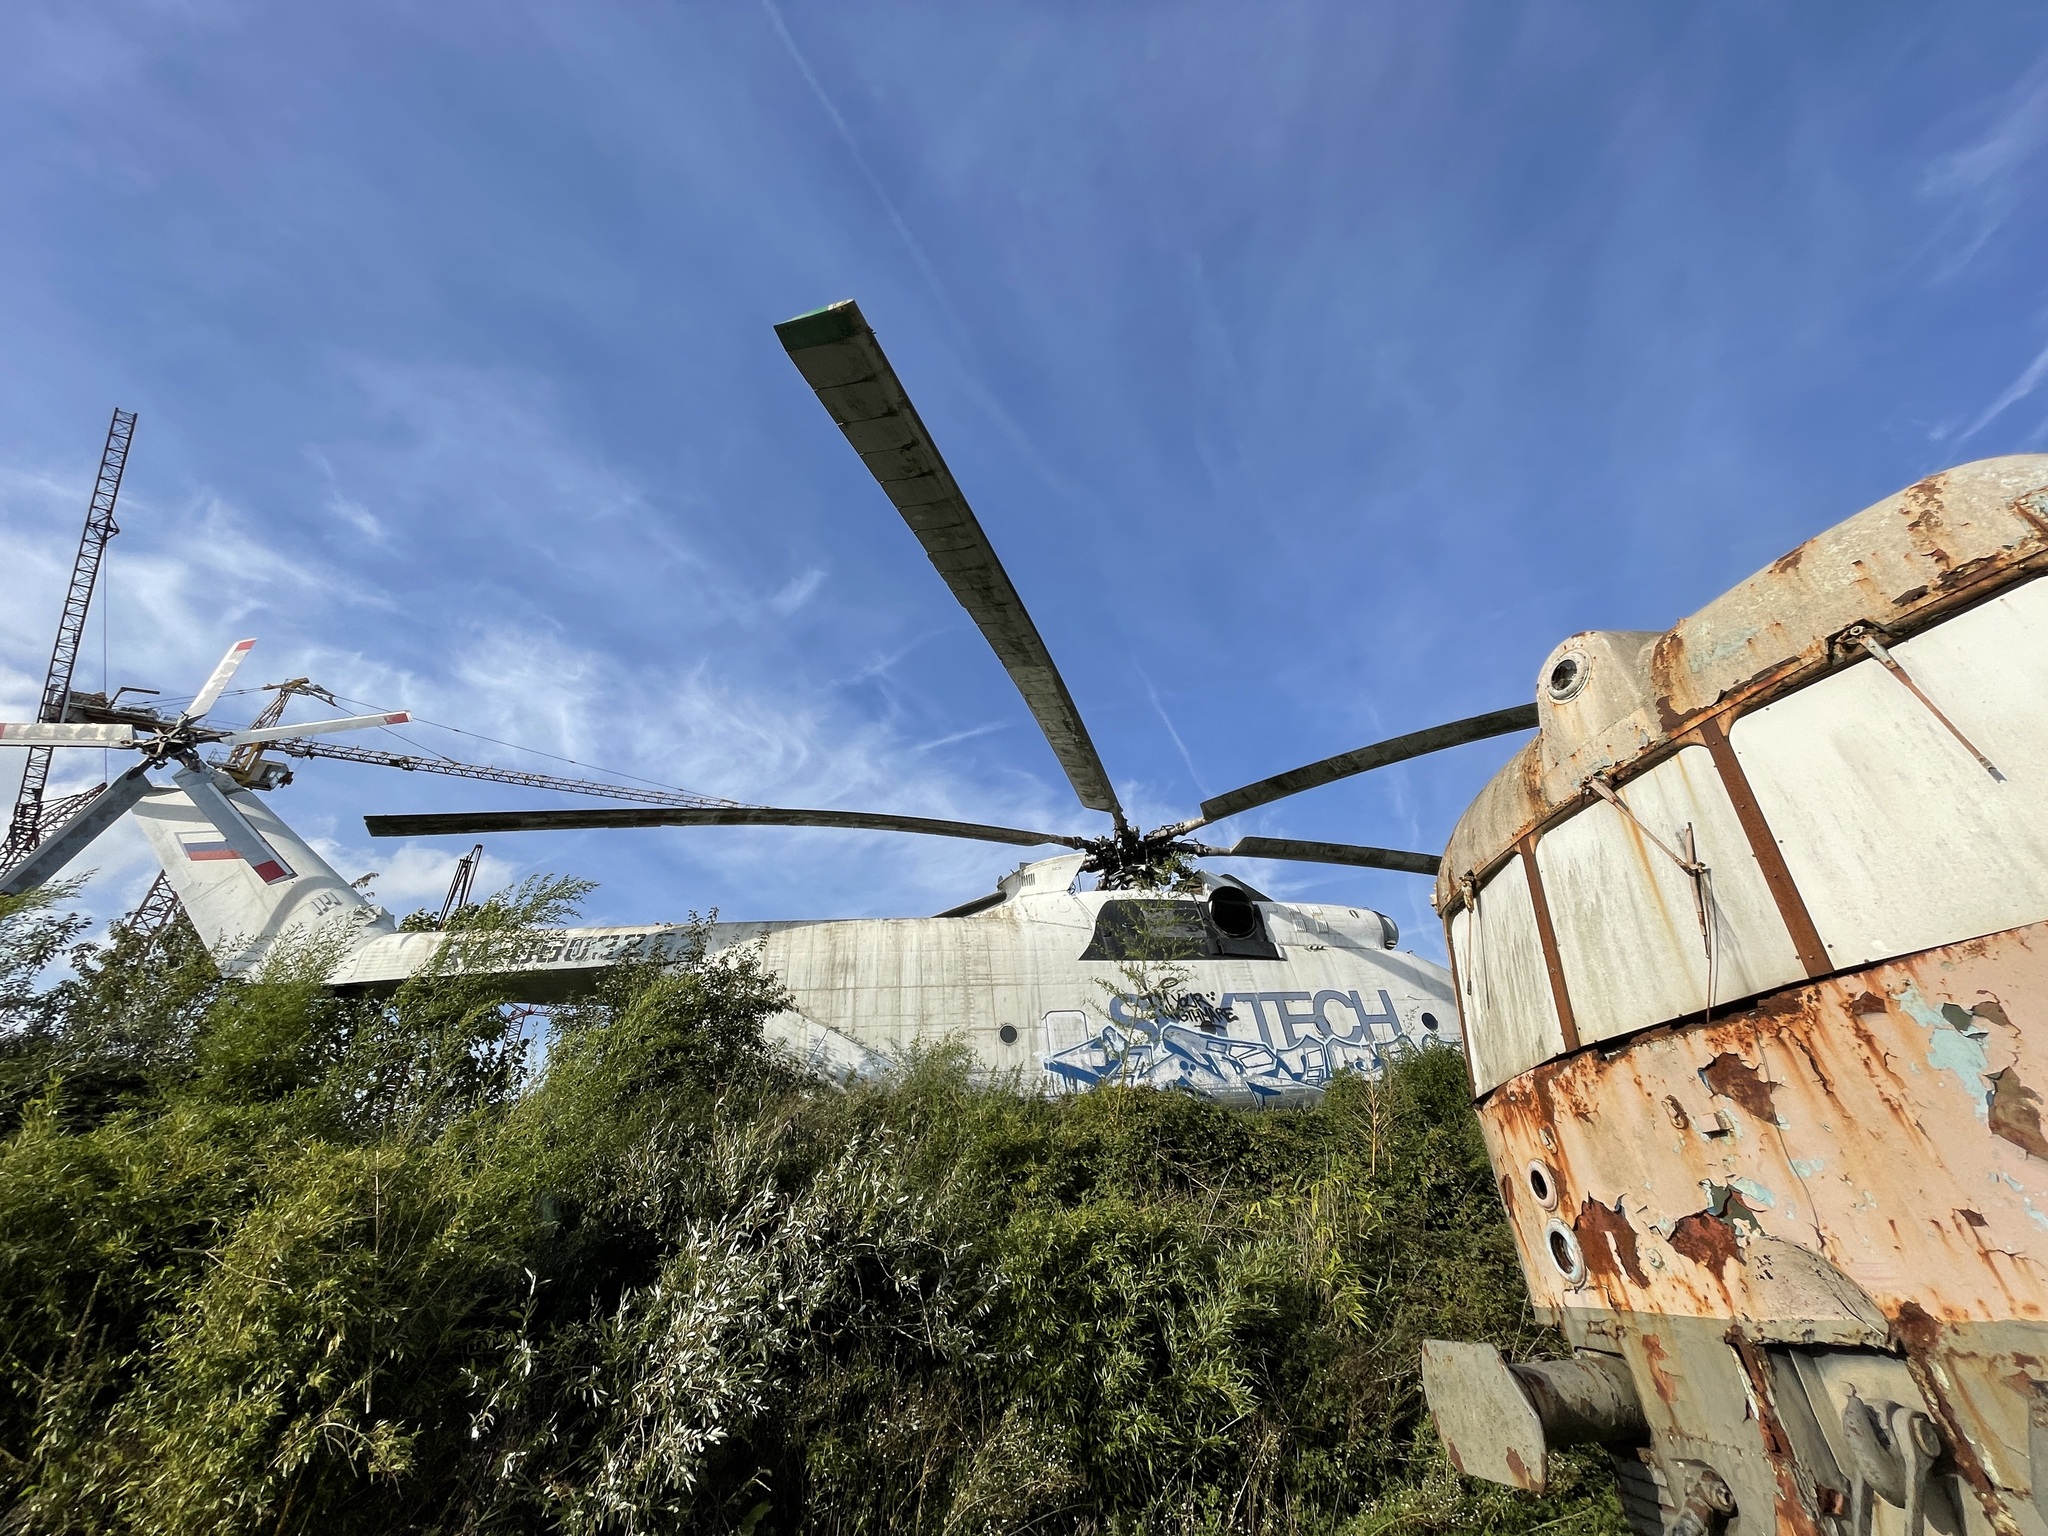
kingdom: Animalia
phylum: Arthropoda
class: Insecta
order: Hymenoptera
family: Vespidae
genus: Vespa
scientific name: Vespa velutina
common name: Asian hornet
